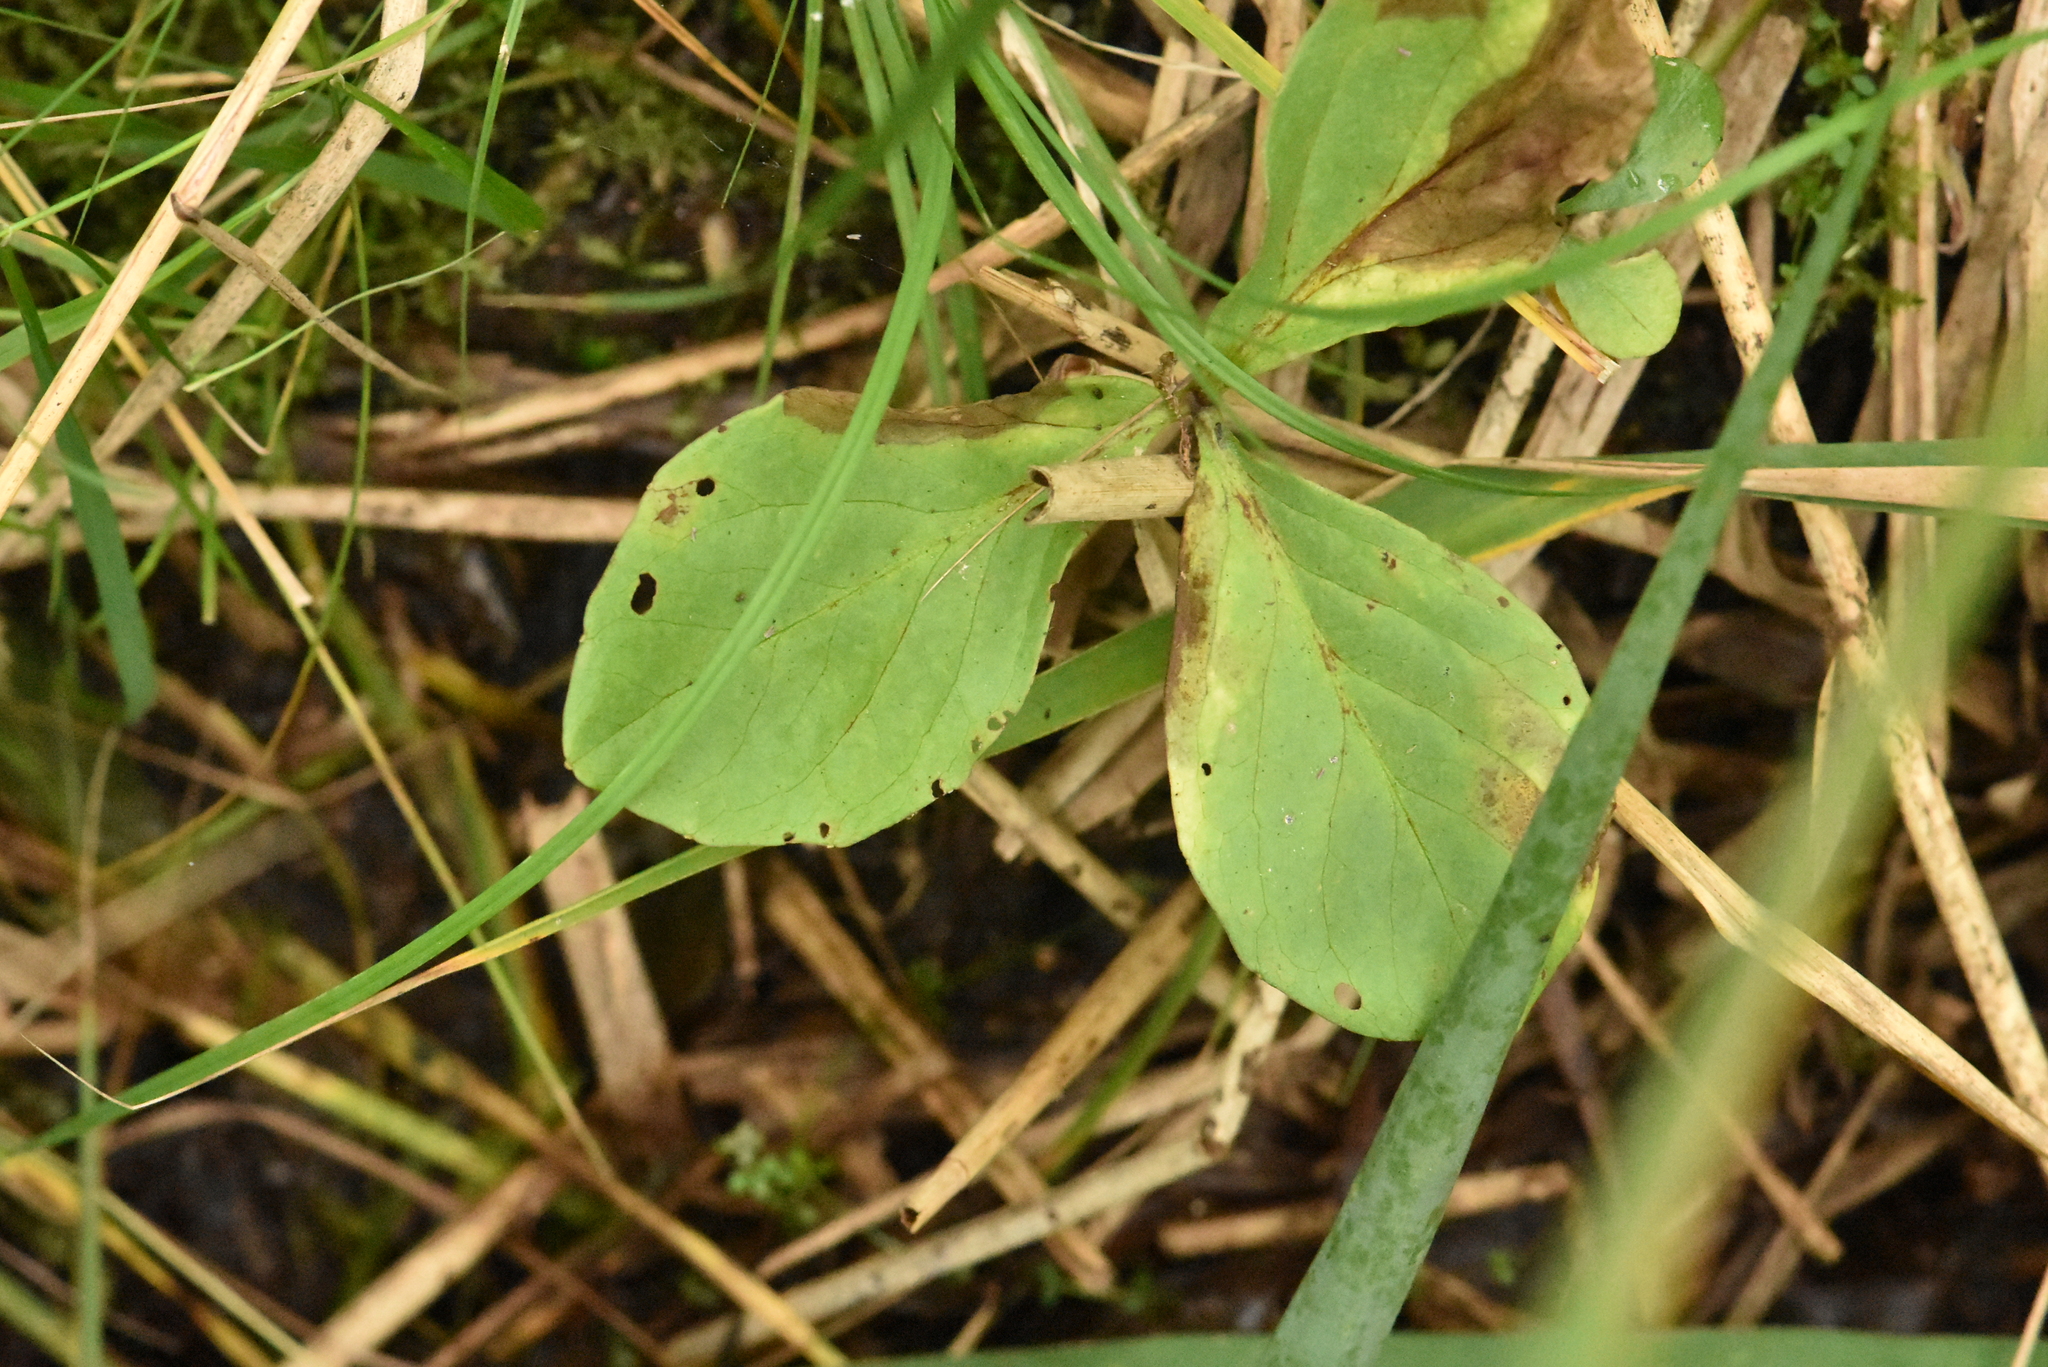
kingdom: Plantae
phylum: Tracheophyta
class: Magnoliopsida
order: Asterales
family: Menyanthaceae
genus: Menyanthes
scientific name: Menyanthes trifoliata
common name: Bogbean
